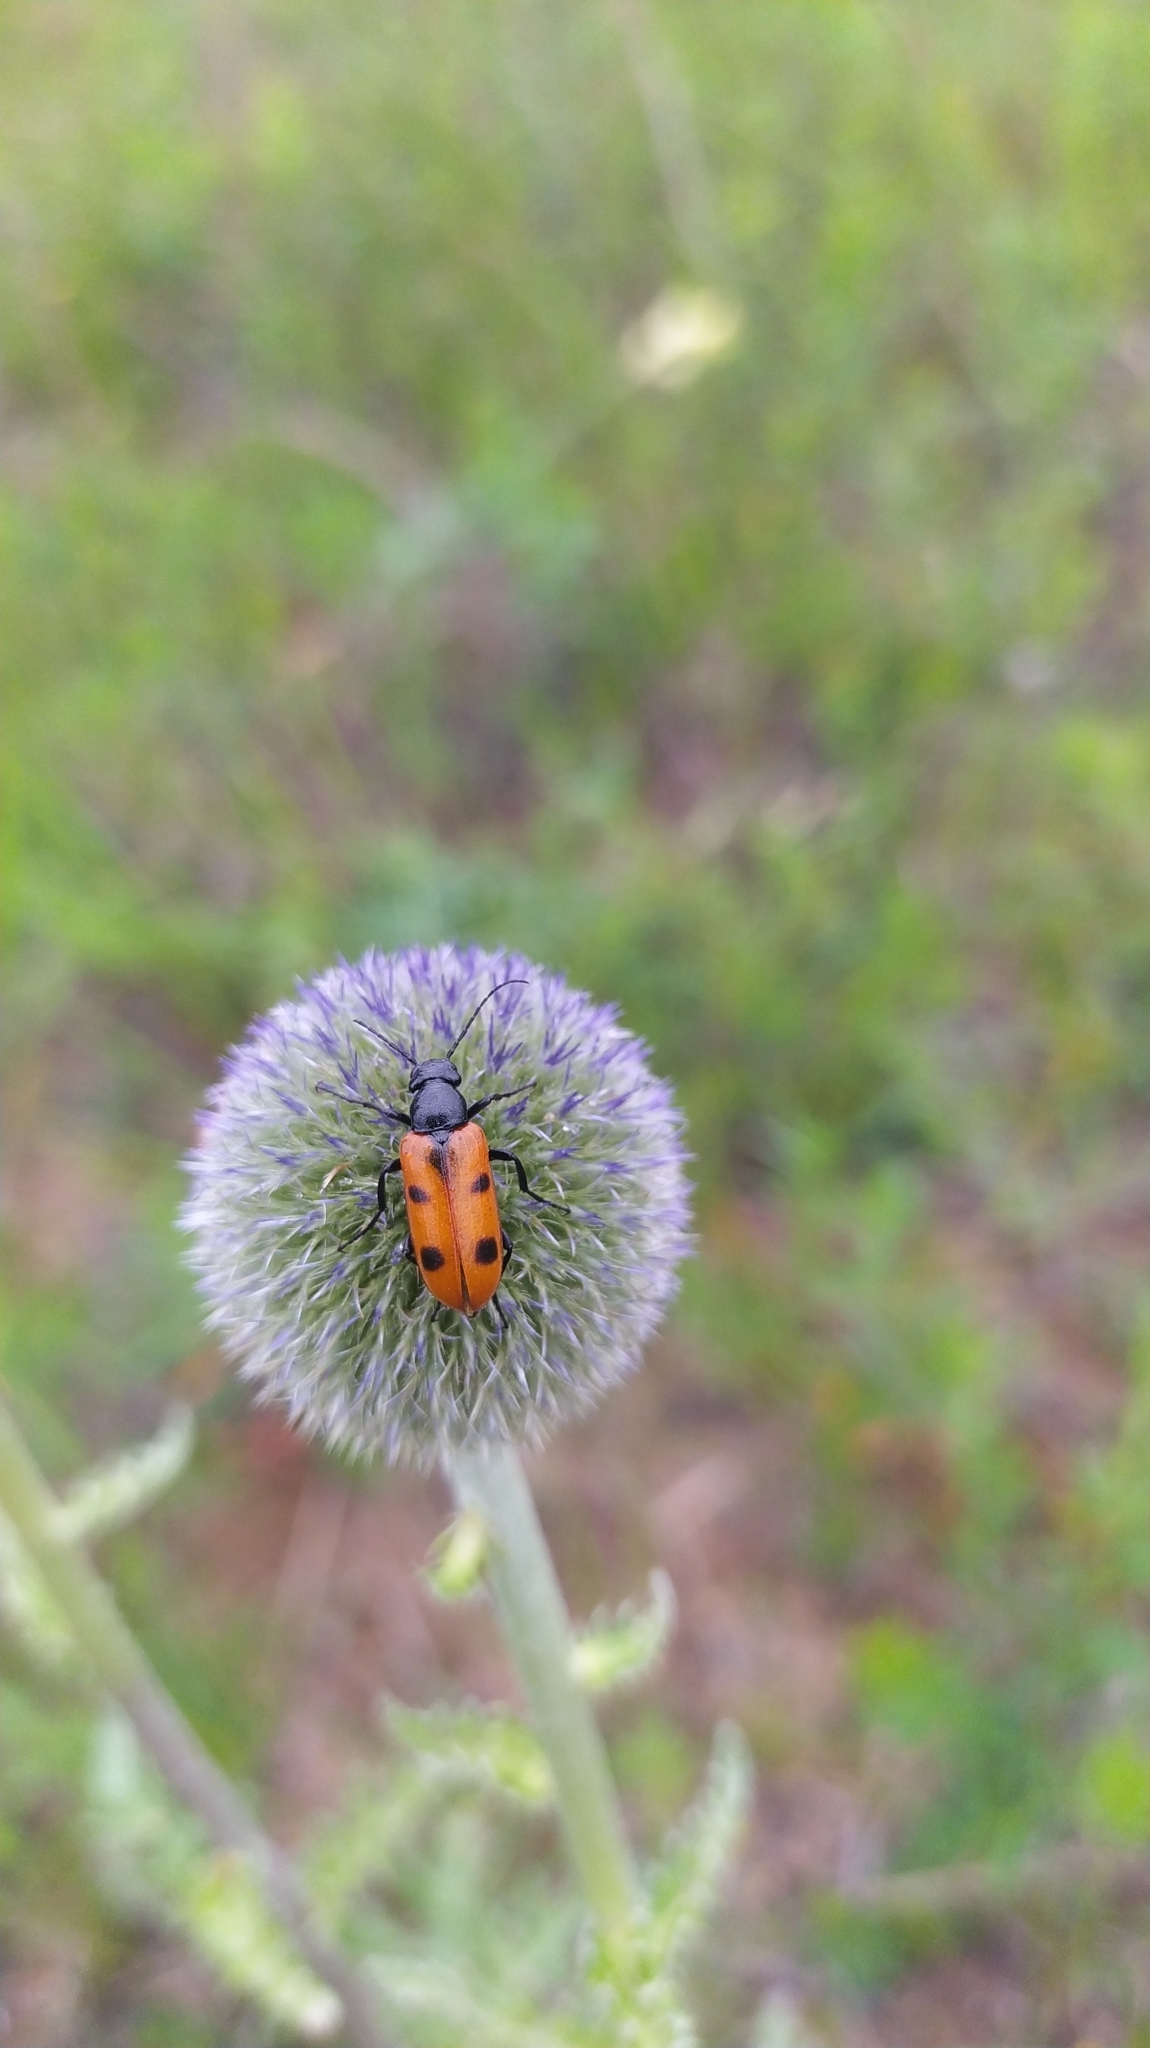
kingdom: Plantae
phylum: Tracheophyta
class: Magnoliopsida
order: Asterales
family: Asteraceae
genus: Echinops
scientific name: Echinops davuricus
